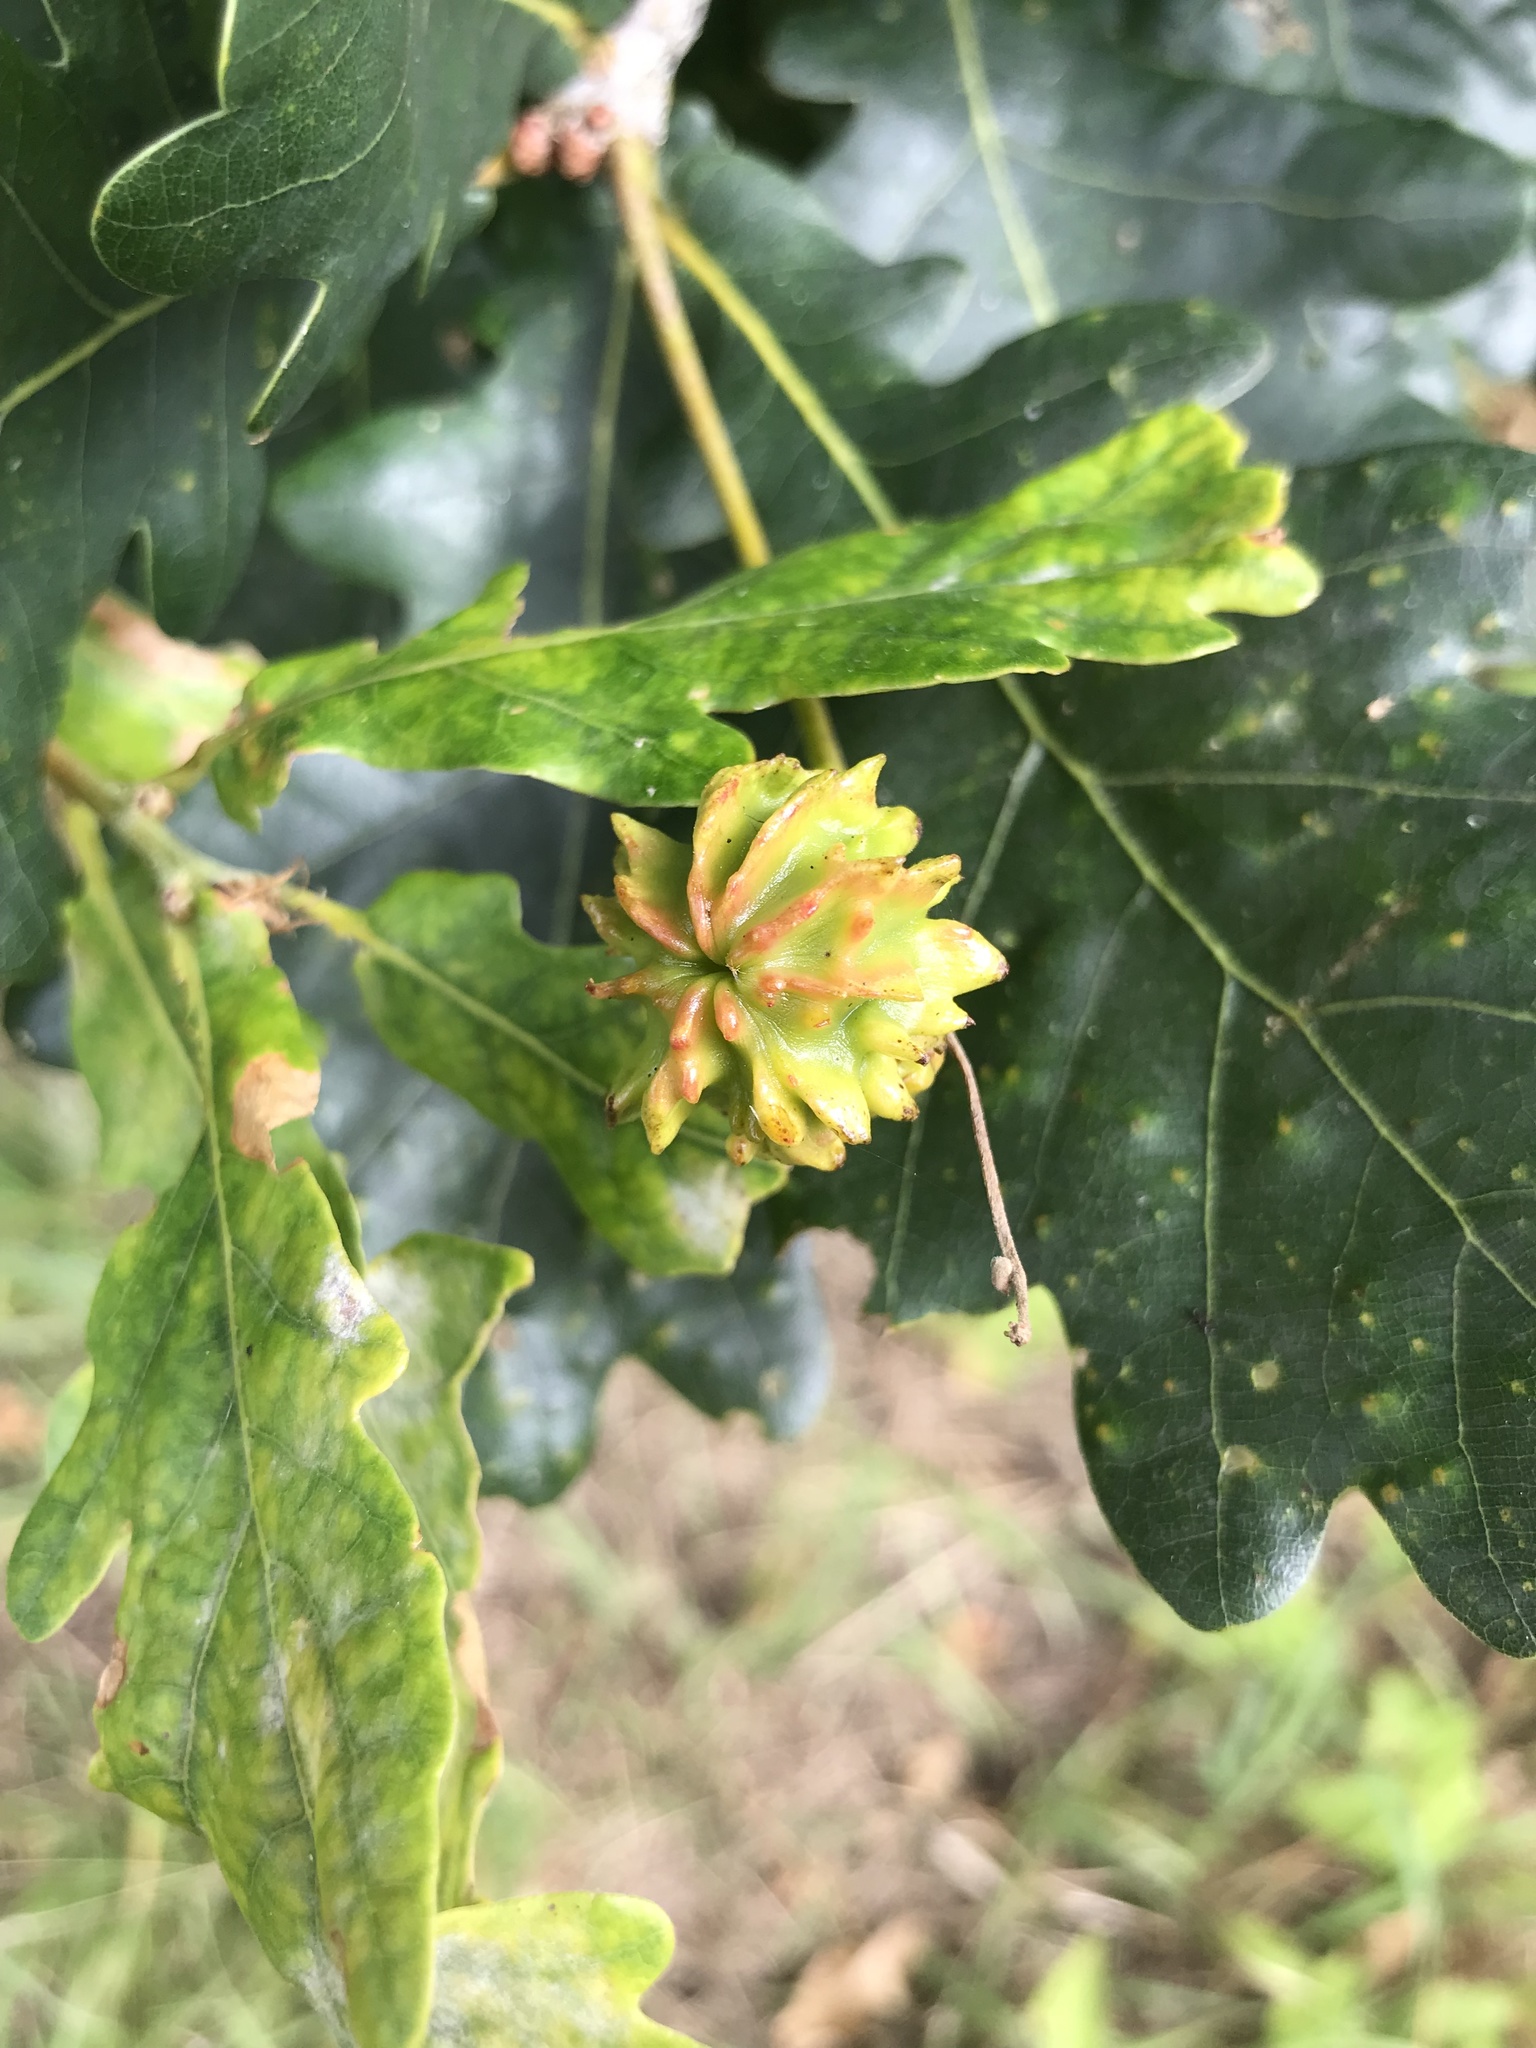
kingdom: Animalia
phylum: Arthropoda
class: Insecta
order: Hymenoptera
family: Cynipidae
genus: Andricus
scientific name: Andricus quercuscalicis
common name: Knopper gall
